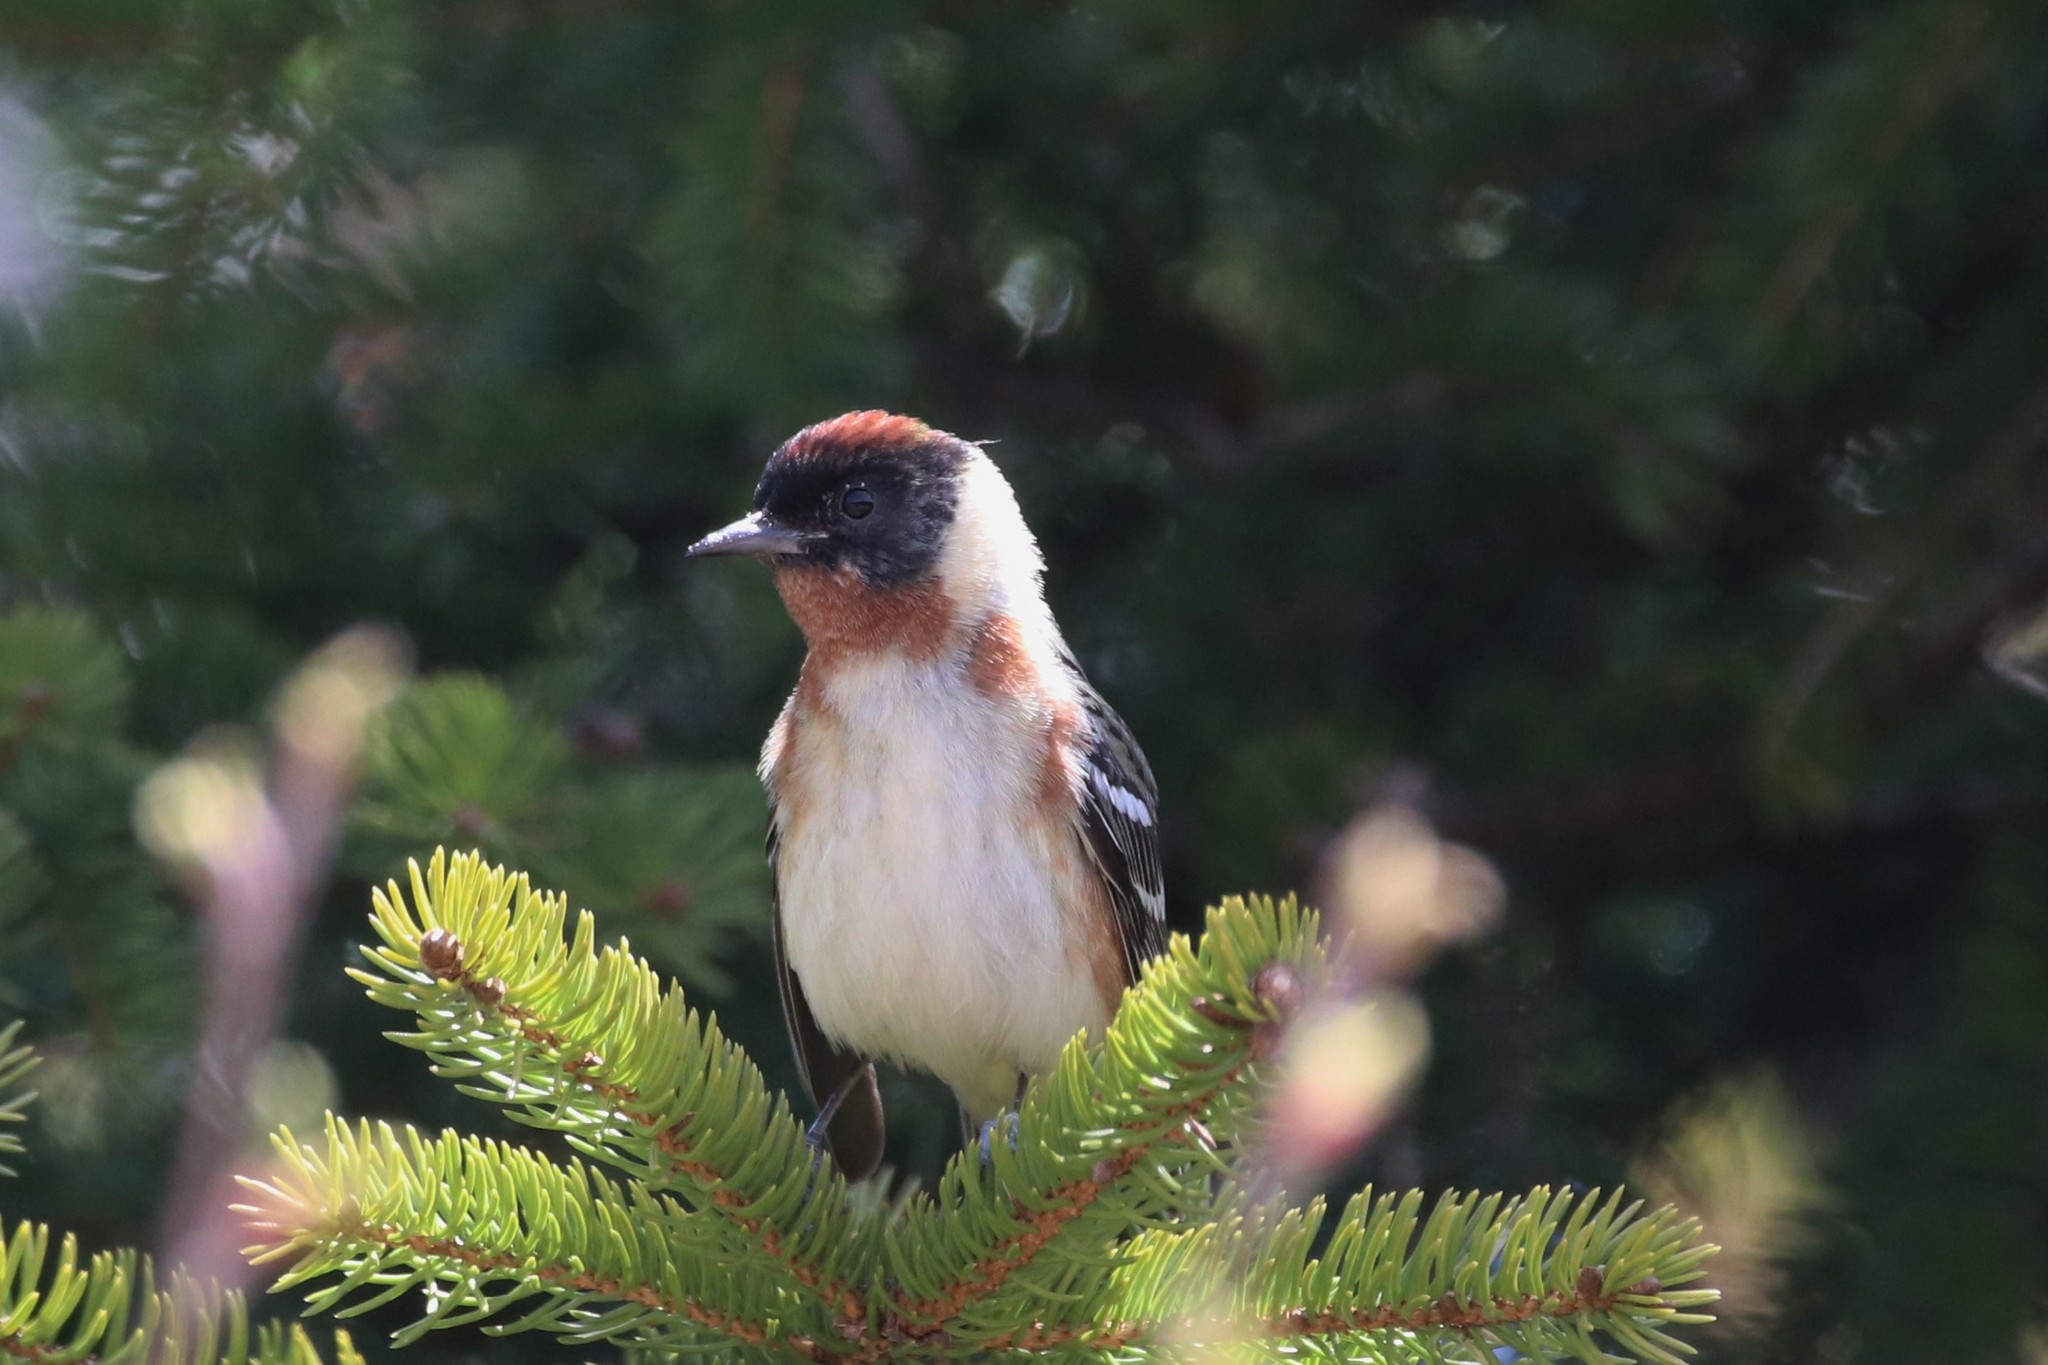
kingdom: Animalia
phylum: Chordata
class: Aves
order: Passeriformes
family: Parulidae
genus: Setophaga
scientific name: Setophaga castanea
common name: Bay-breasted warbler
